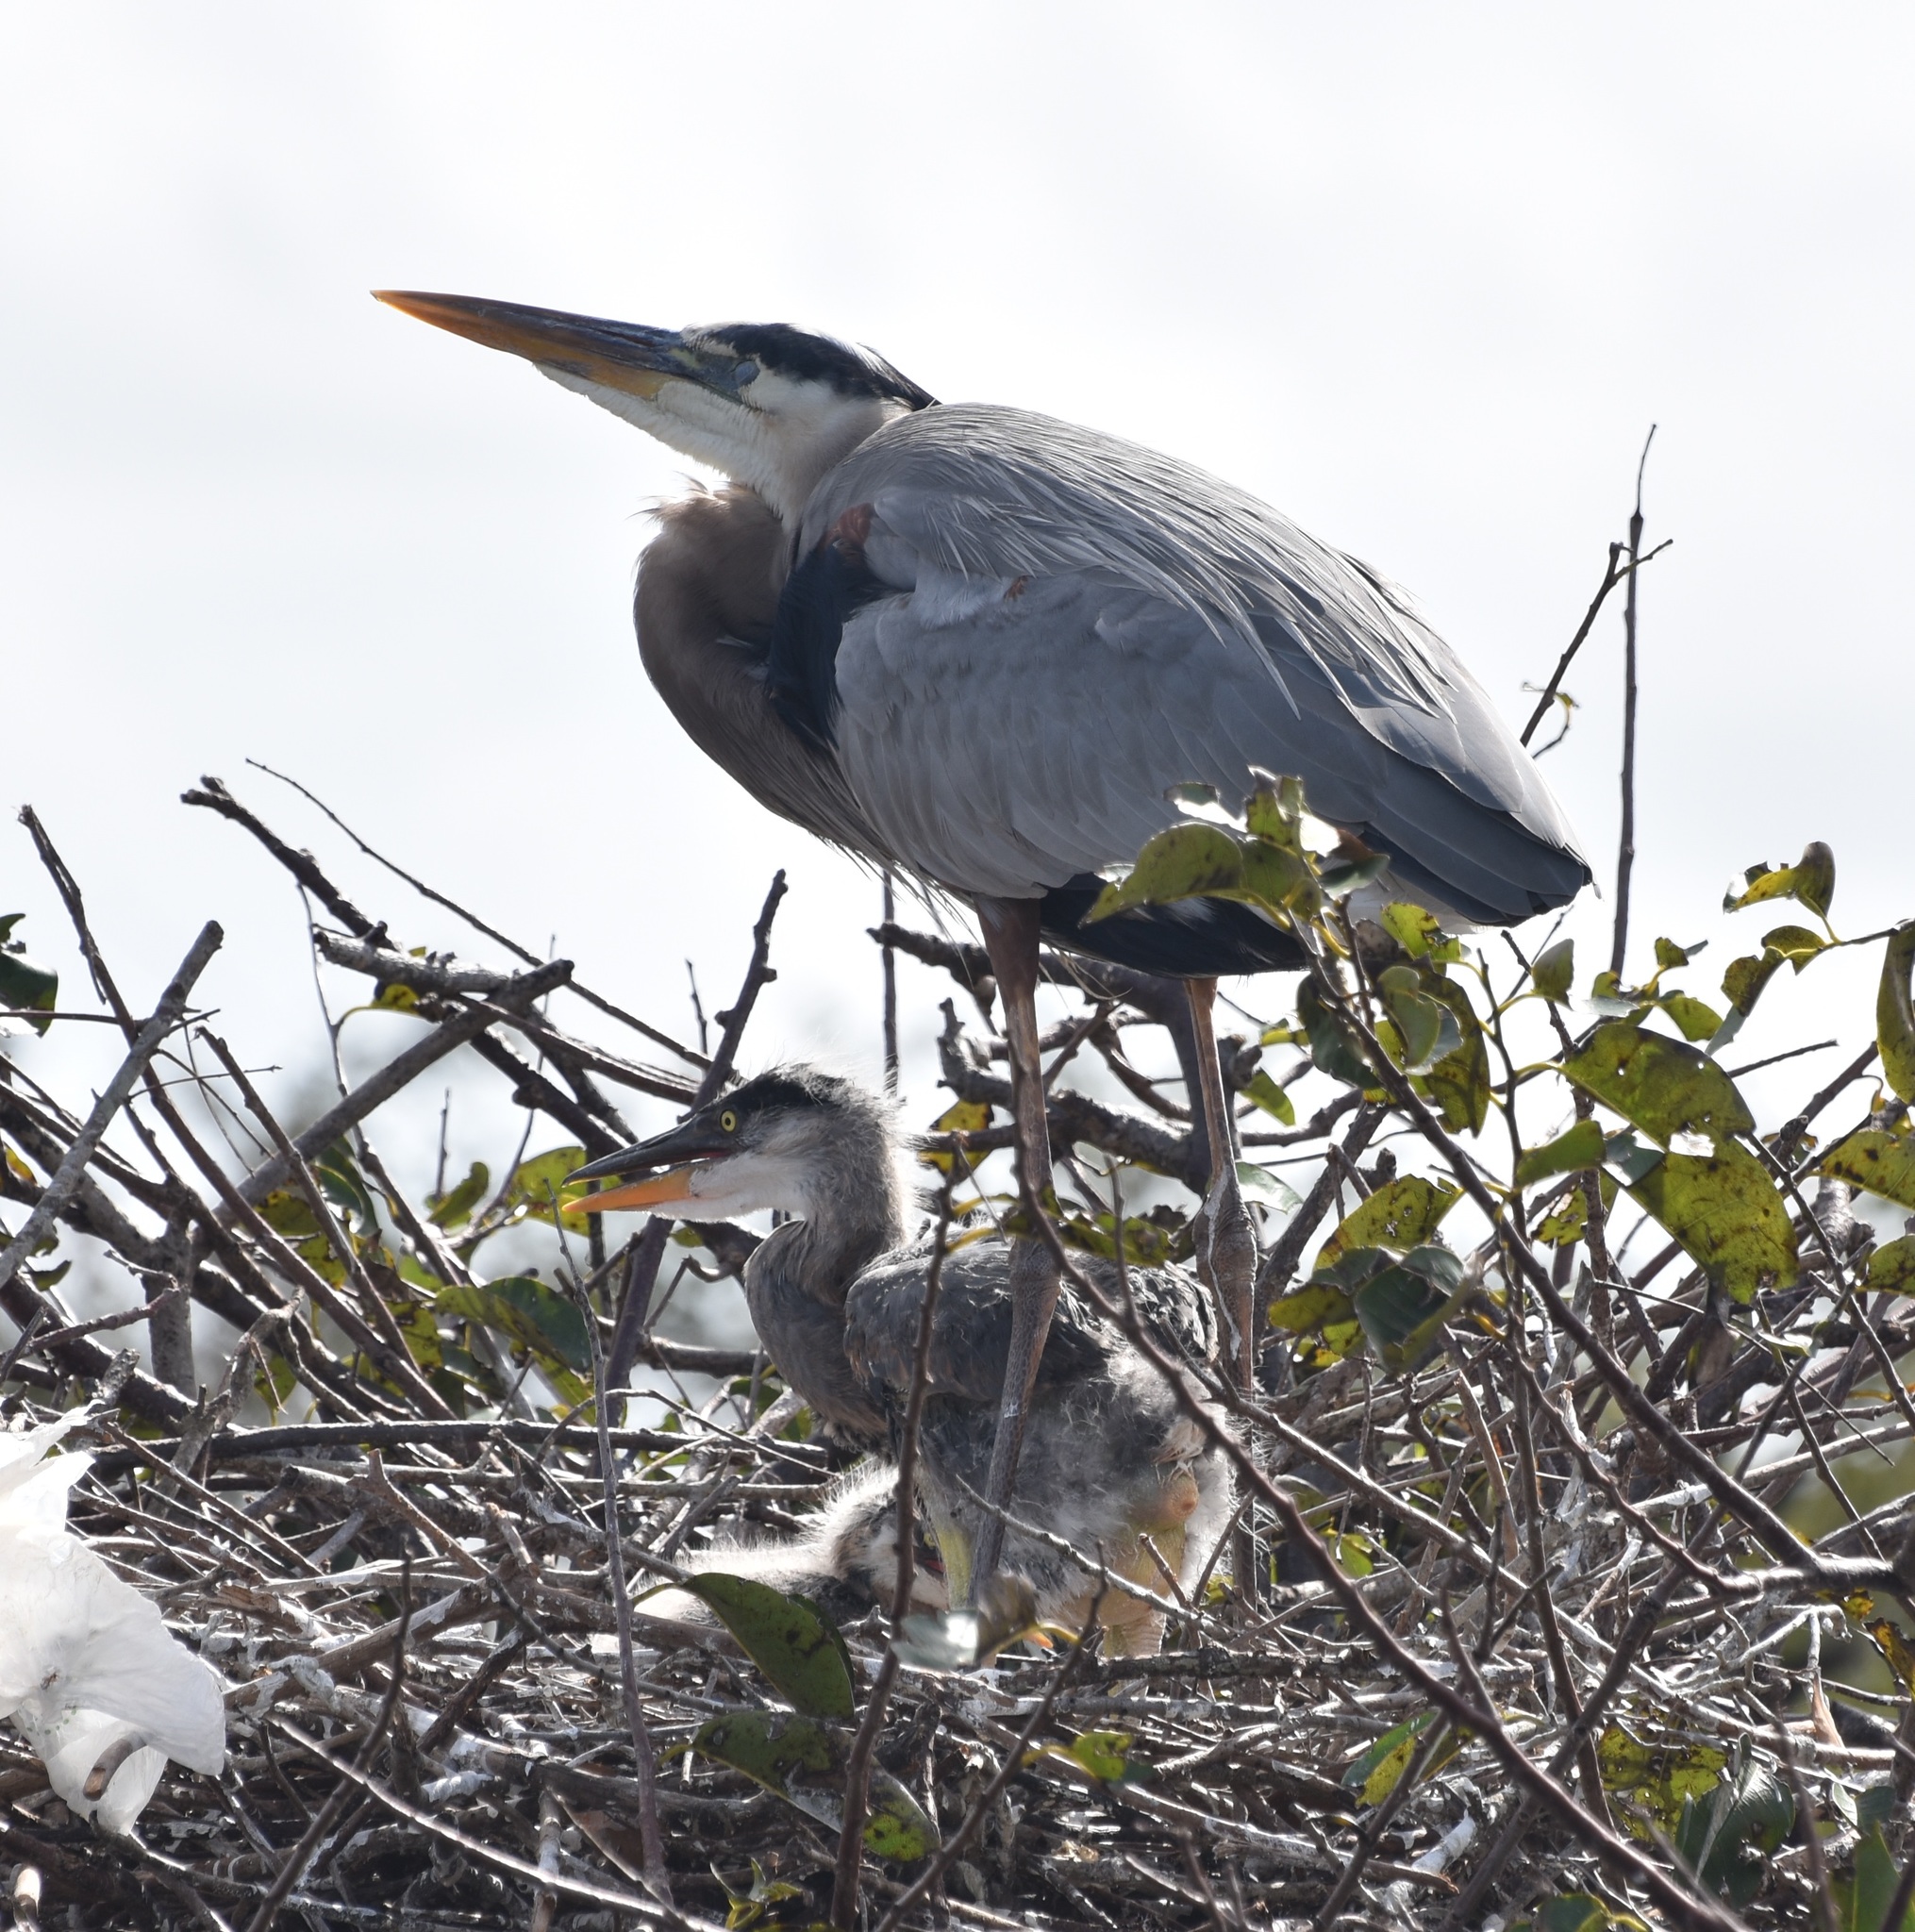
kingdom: Animalia
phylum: Chordata
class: Aves
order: Pelecaniformes
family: Ardeidae
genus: Ardea
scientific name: Ardea herodias
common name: Great blue heron
